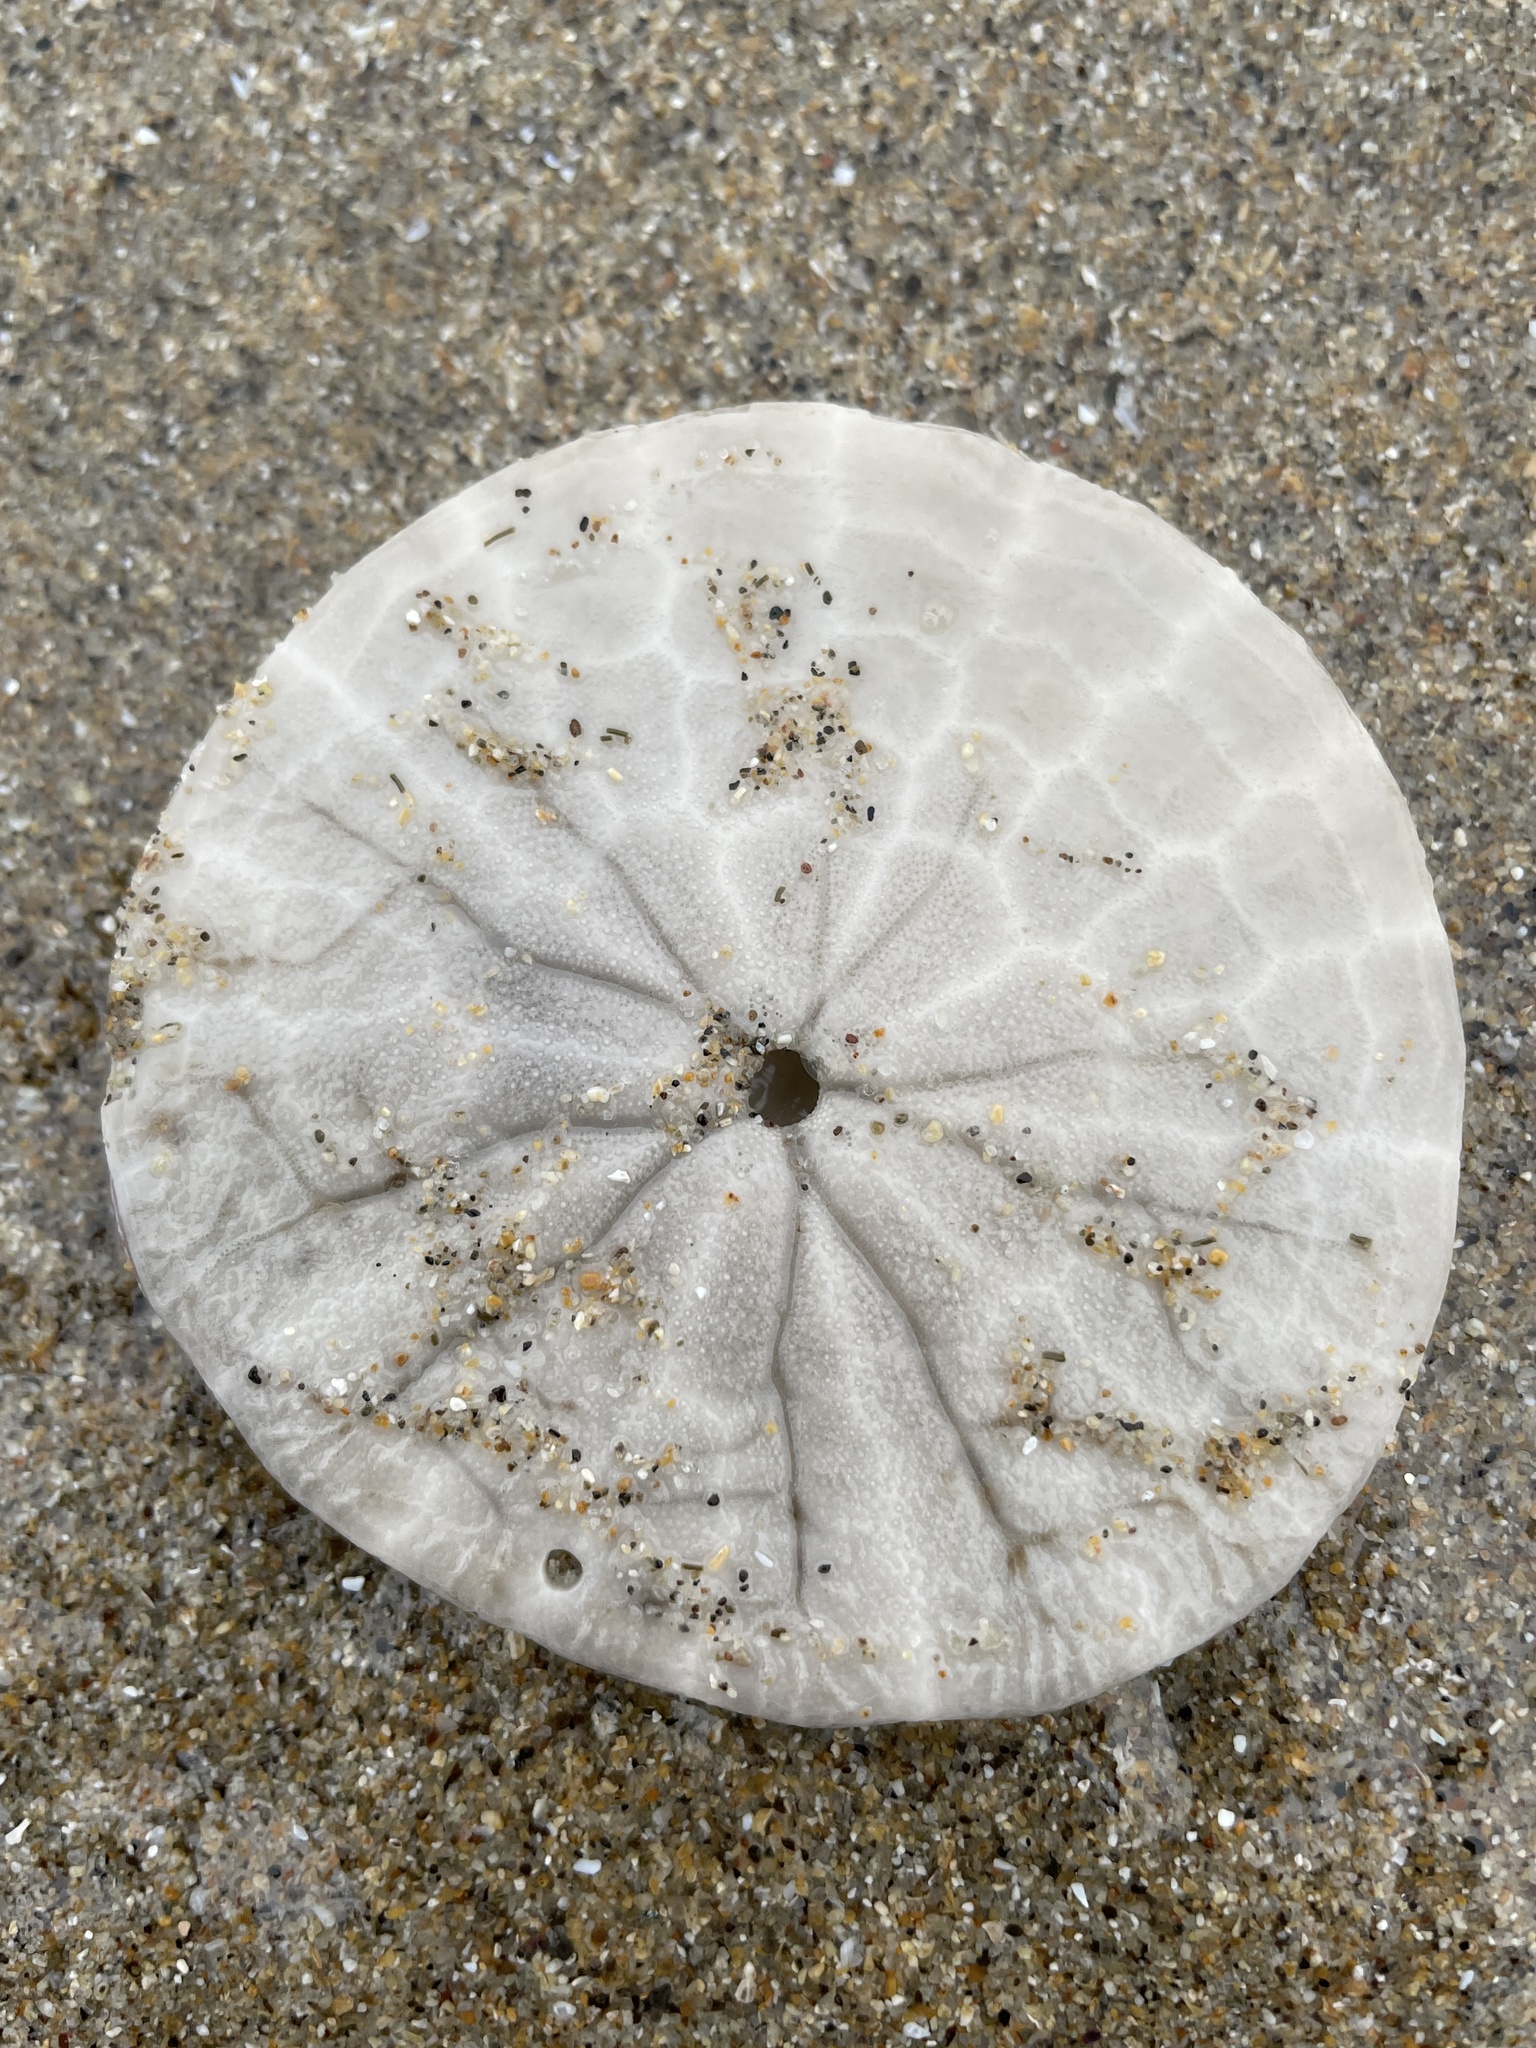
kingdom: Animalia
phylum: Echinodermata
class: Echinoidea
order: Echinolampadacea
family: Dendrasteridae
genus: Dendraster
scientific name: Dendraster excentricus
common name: Eccentric sand dollar sea urchin
